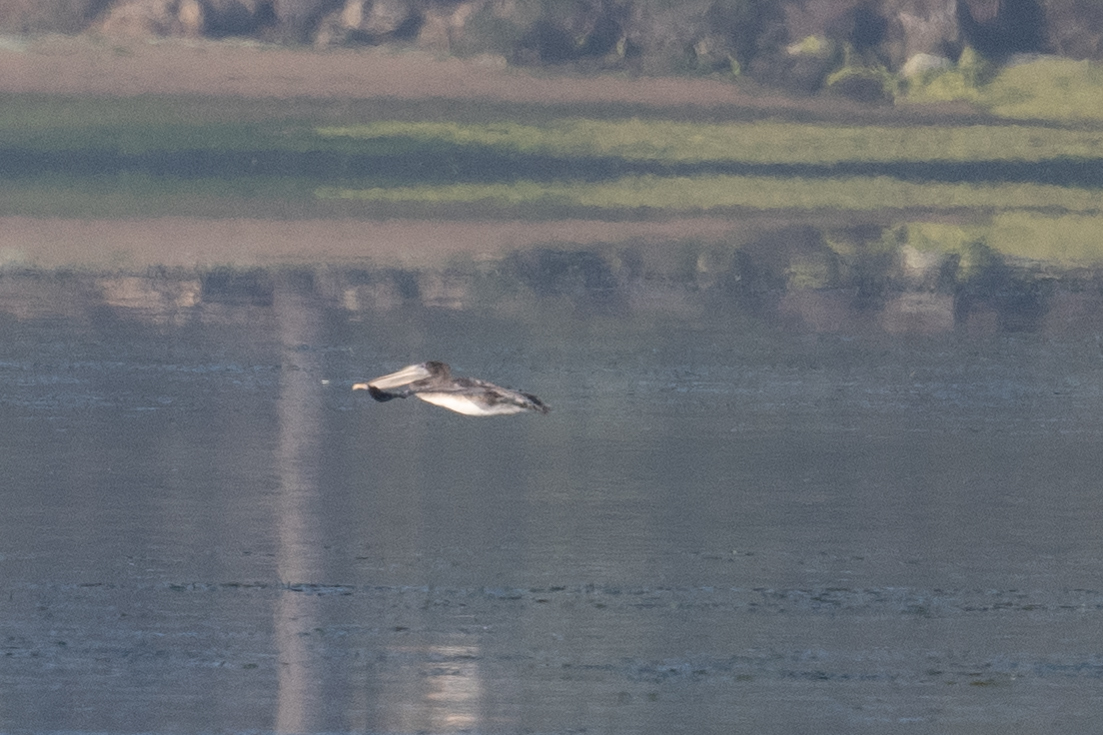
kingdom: Animalia
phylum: Chordata
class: Aves
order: Pelecaniformes
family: Pelecanidae
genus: Pelecanus
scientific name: Pelecanus occidentalis
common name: Brown pelican
